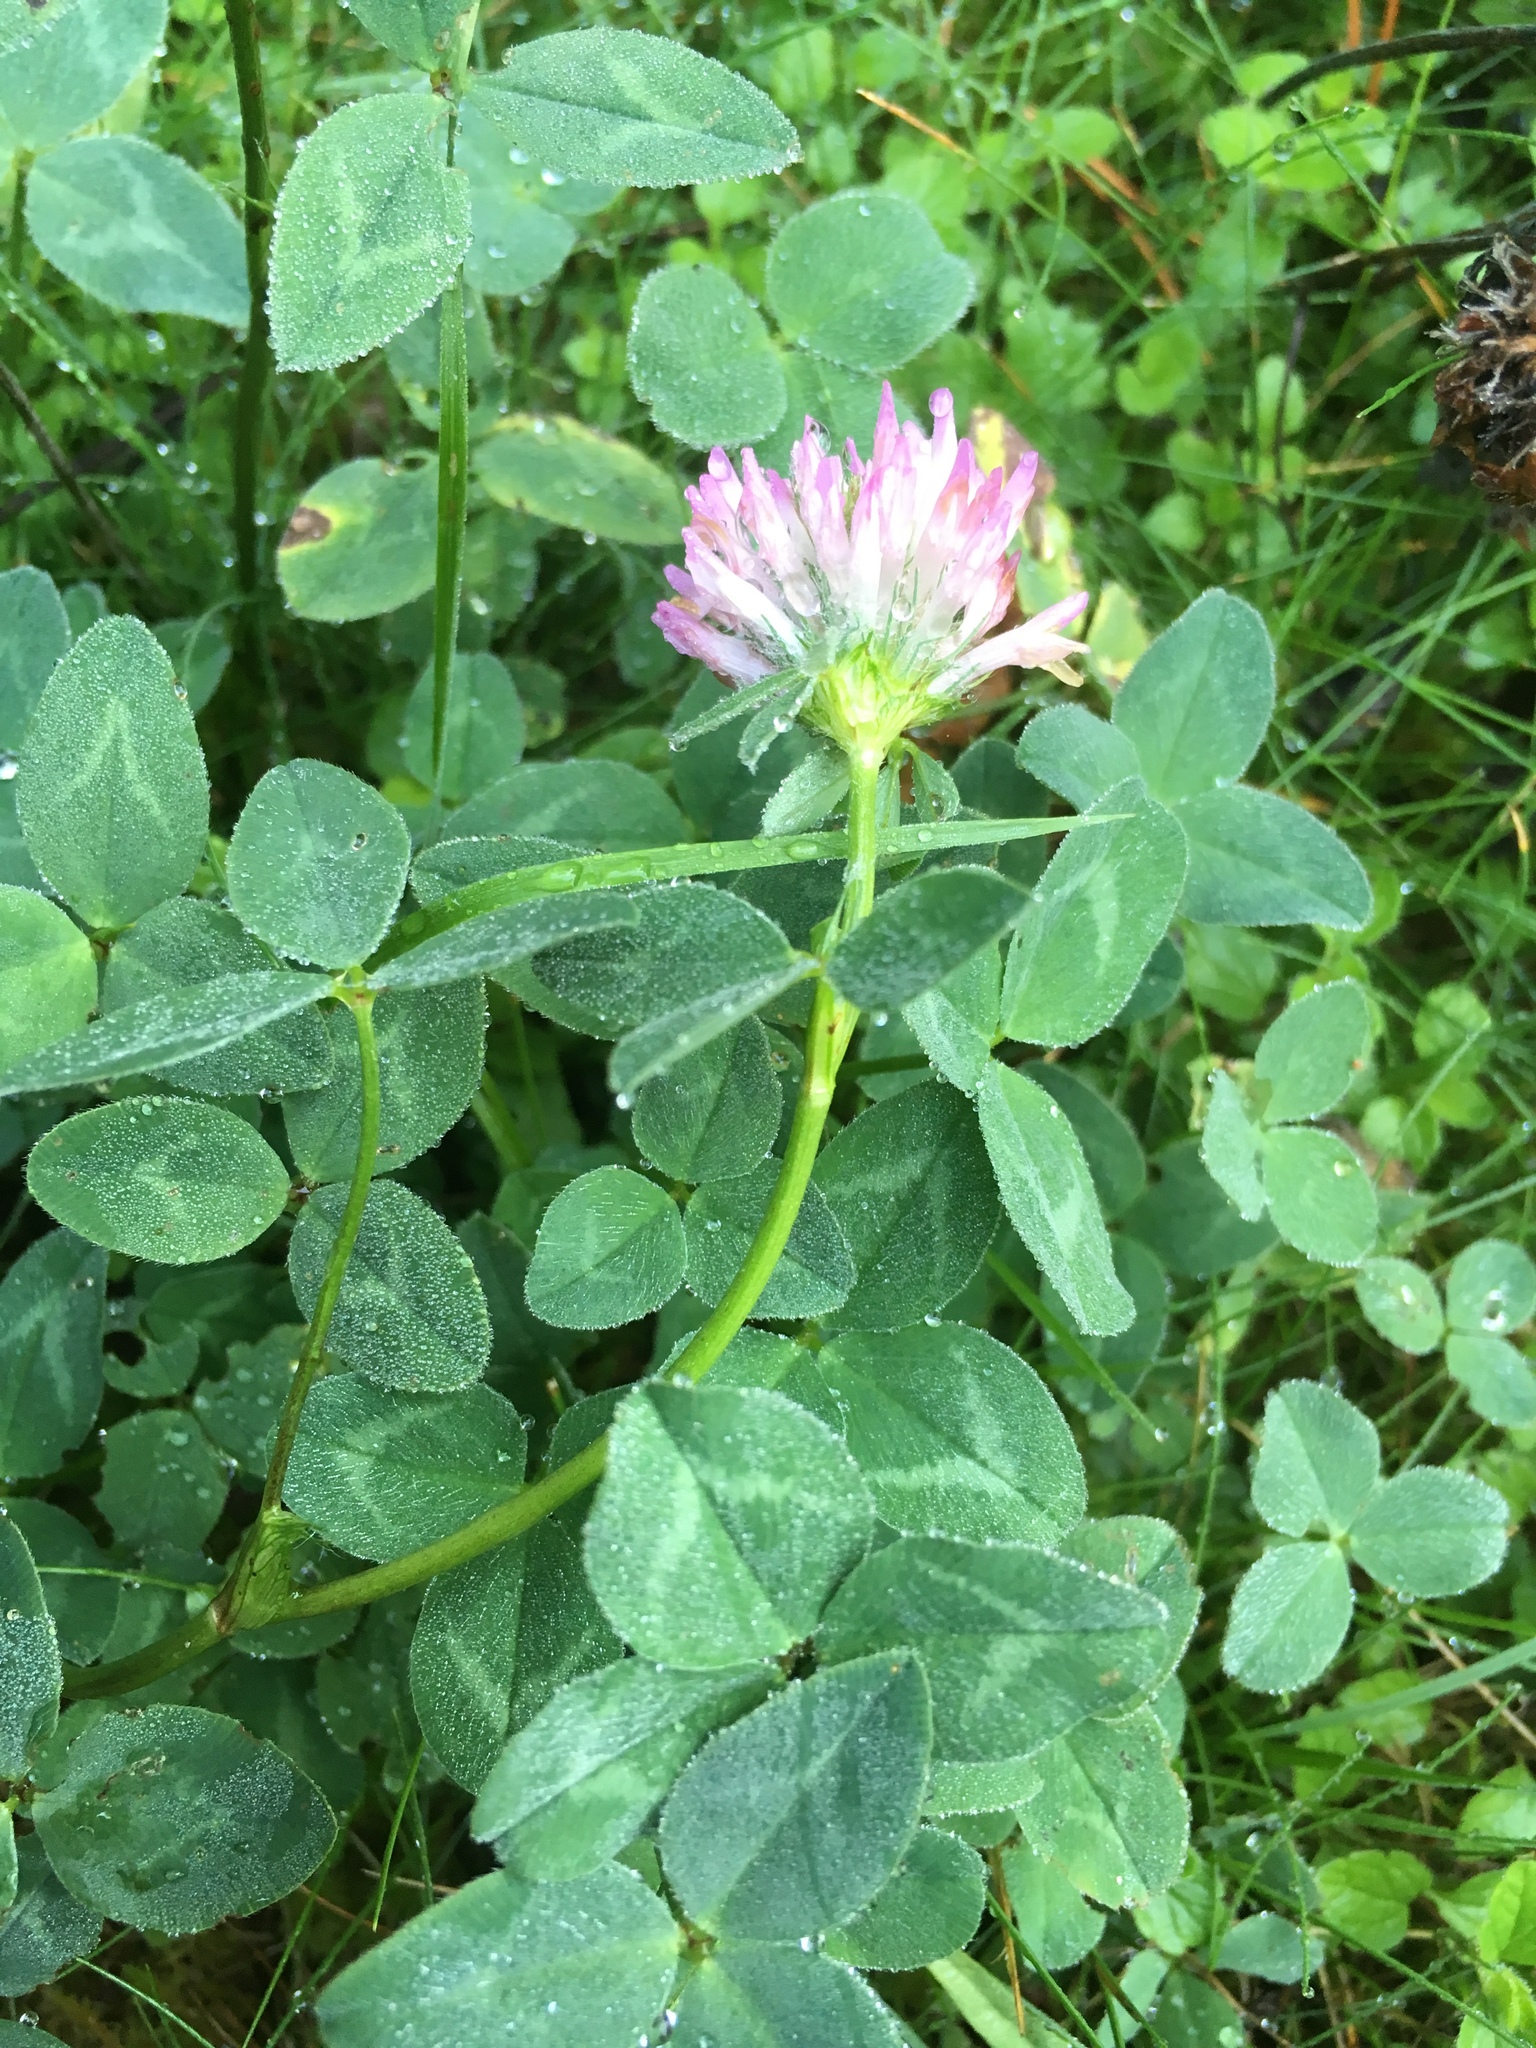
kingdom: Plantae
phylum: Tracheophyta
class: Magnoliopsida
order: Fabales
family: Fabaceae
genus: Trifolium
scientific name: Trifolium pratense
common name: Red clover
